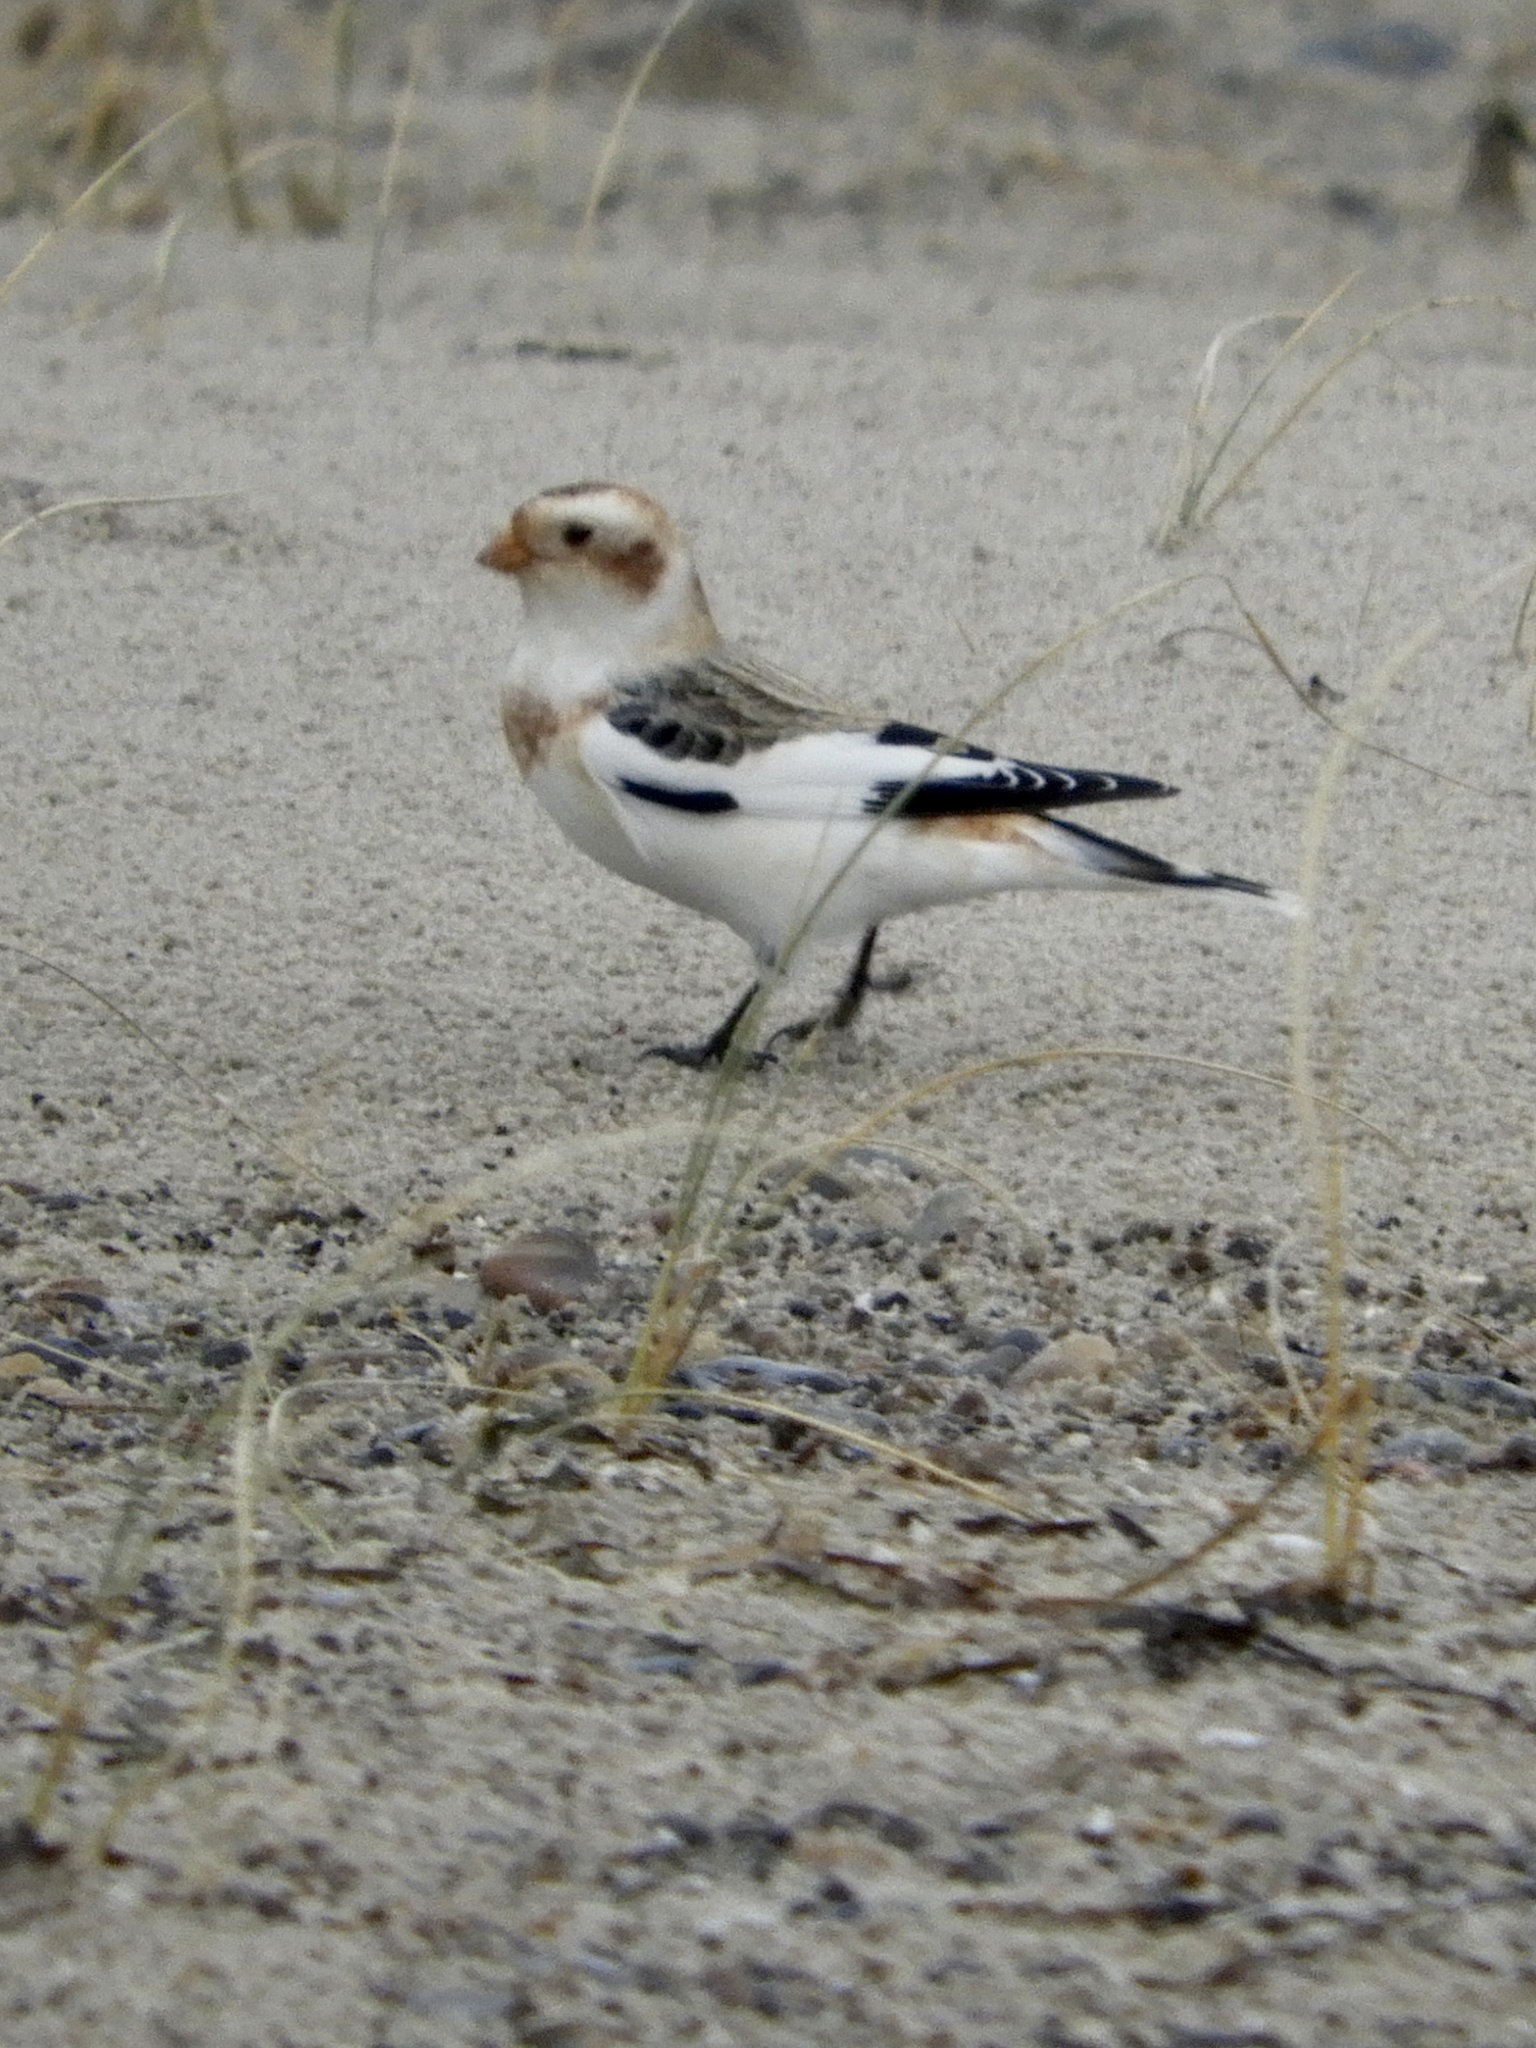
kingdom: Animalia
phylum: Chordata
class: Aves
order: Passeriformes
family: Calcariidae
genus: Plectrophenax
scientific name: Plectrophenax nivalis
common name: Snow bunting
